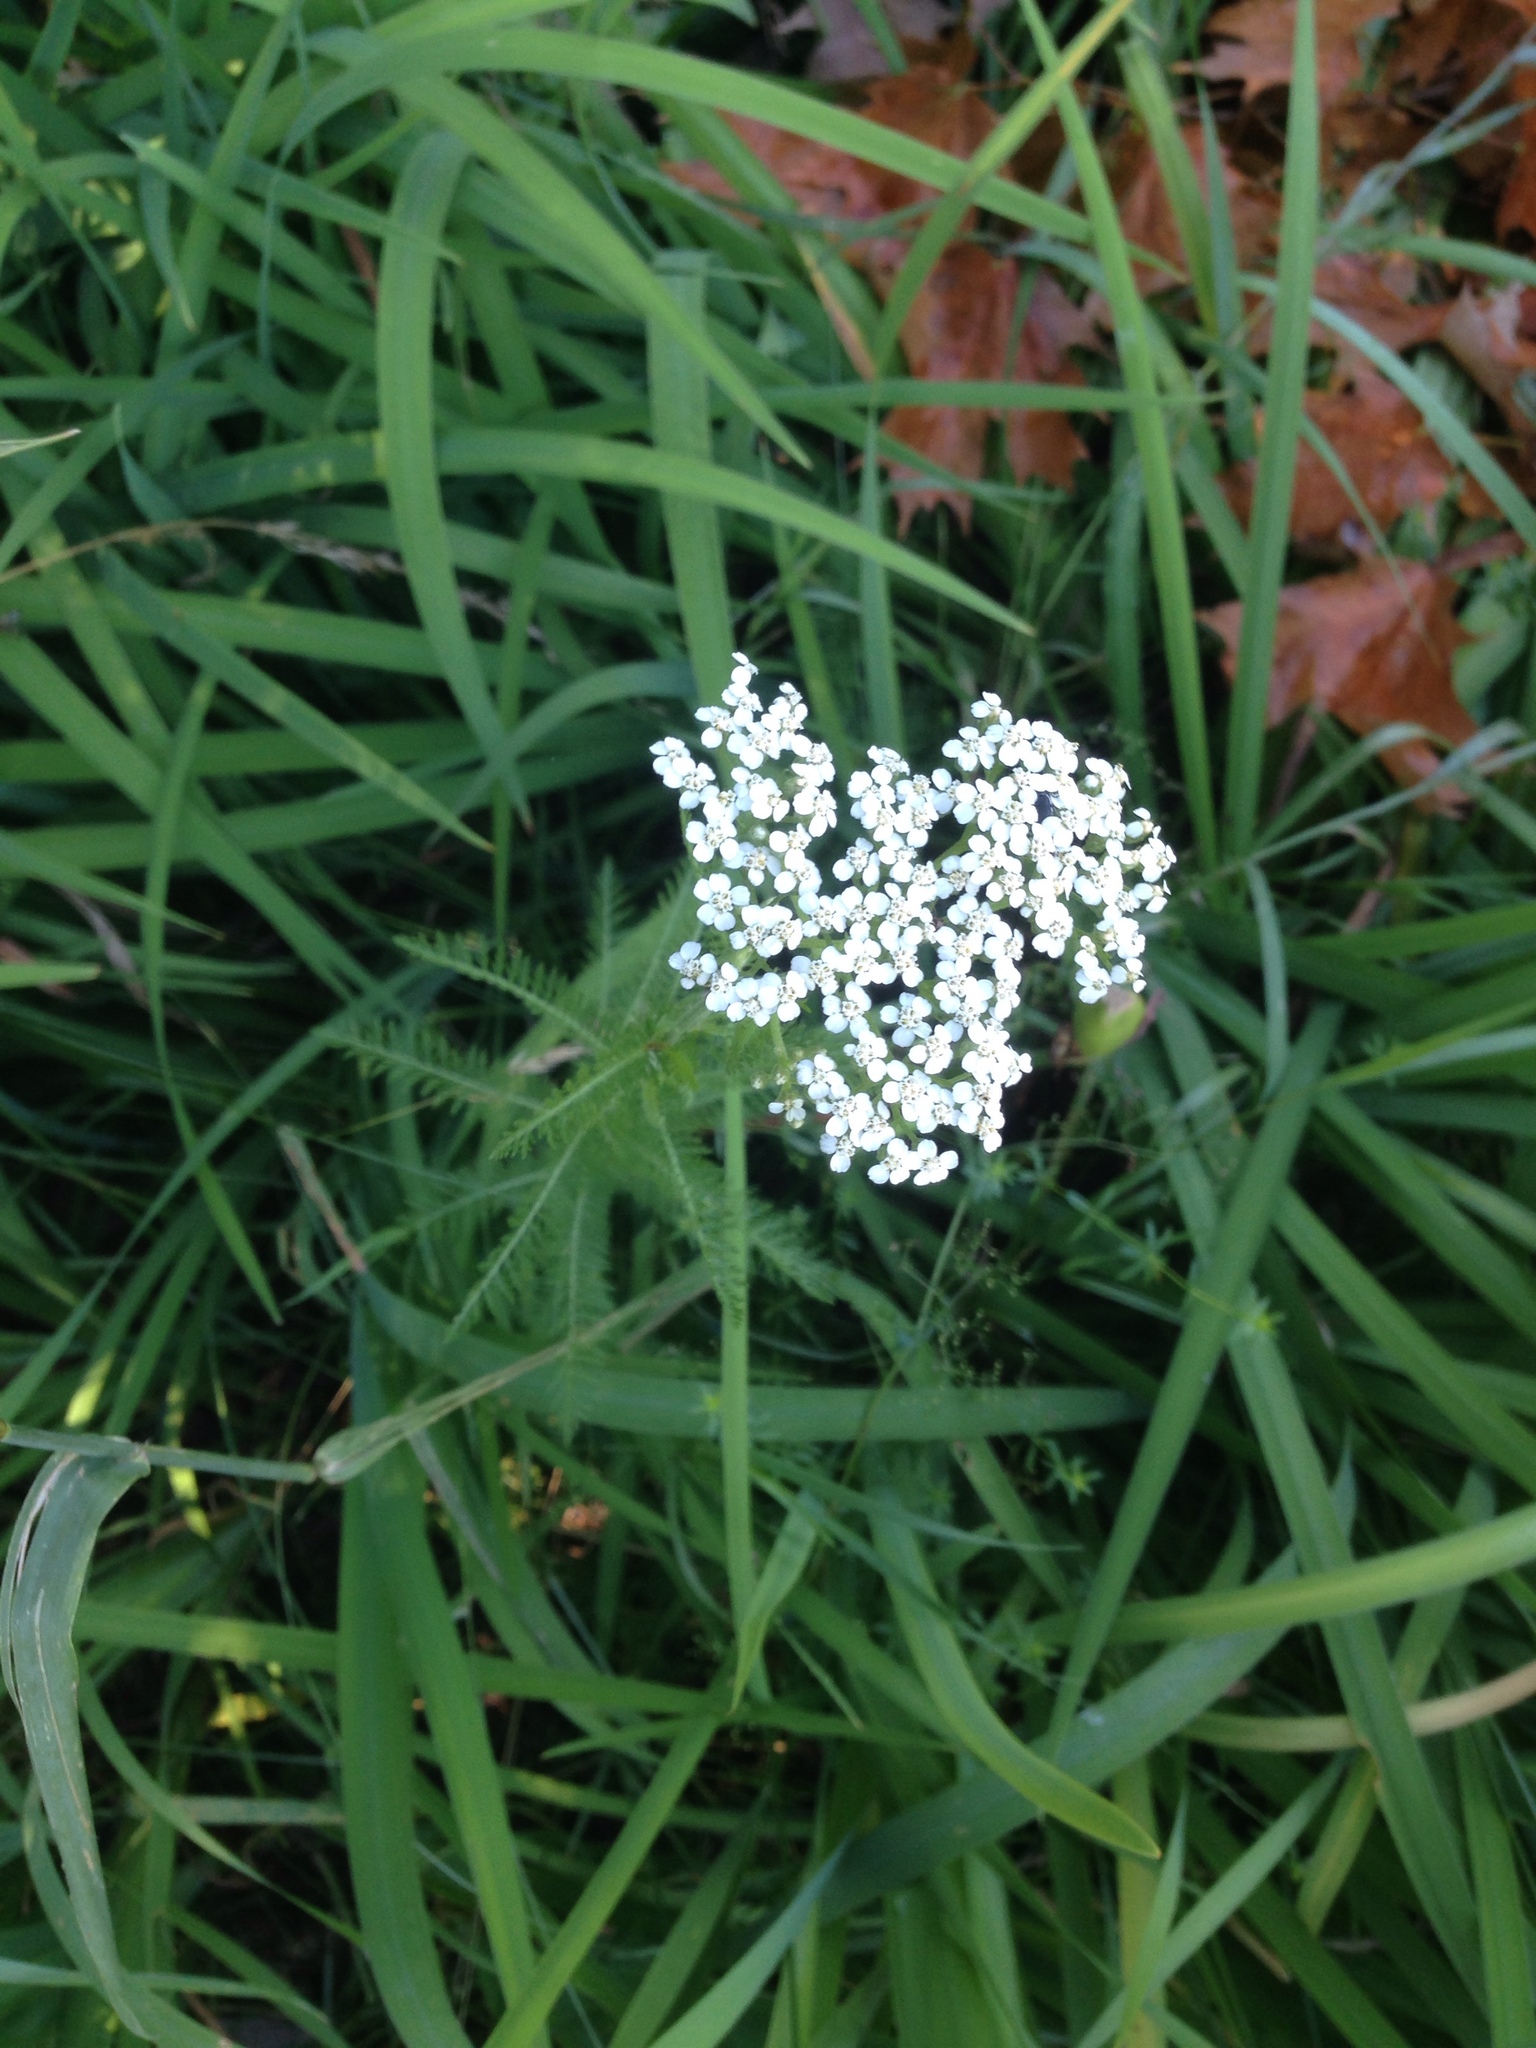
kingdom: Plantae
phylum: Tracheophyta
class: Magnoliopsida
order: Asterales
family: Asteraceae
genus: Achillea
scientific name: Achillea millefolium
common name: Yarrow
